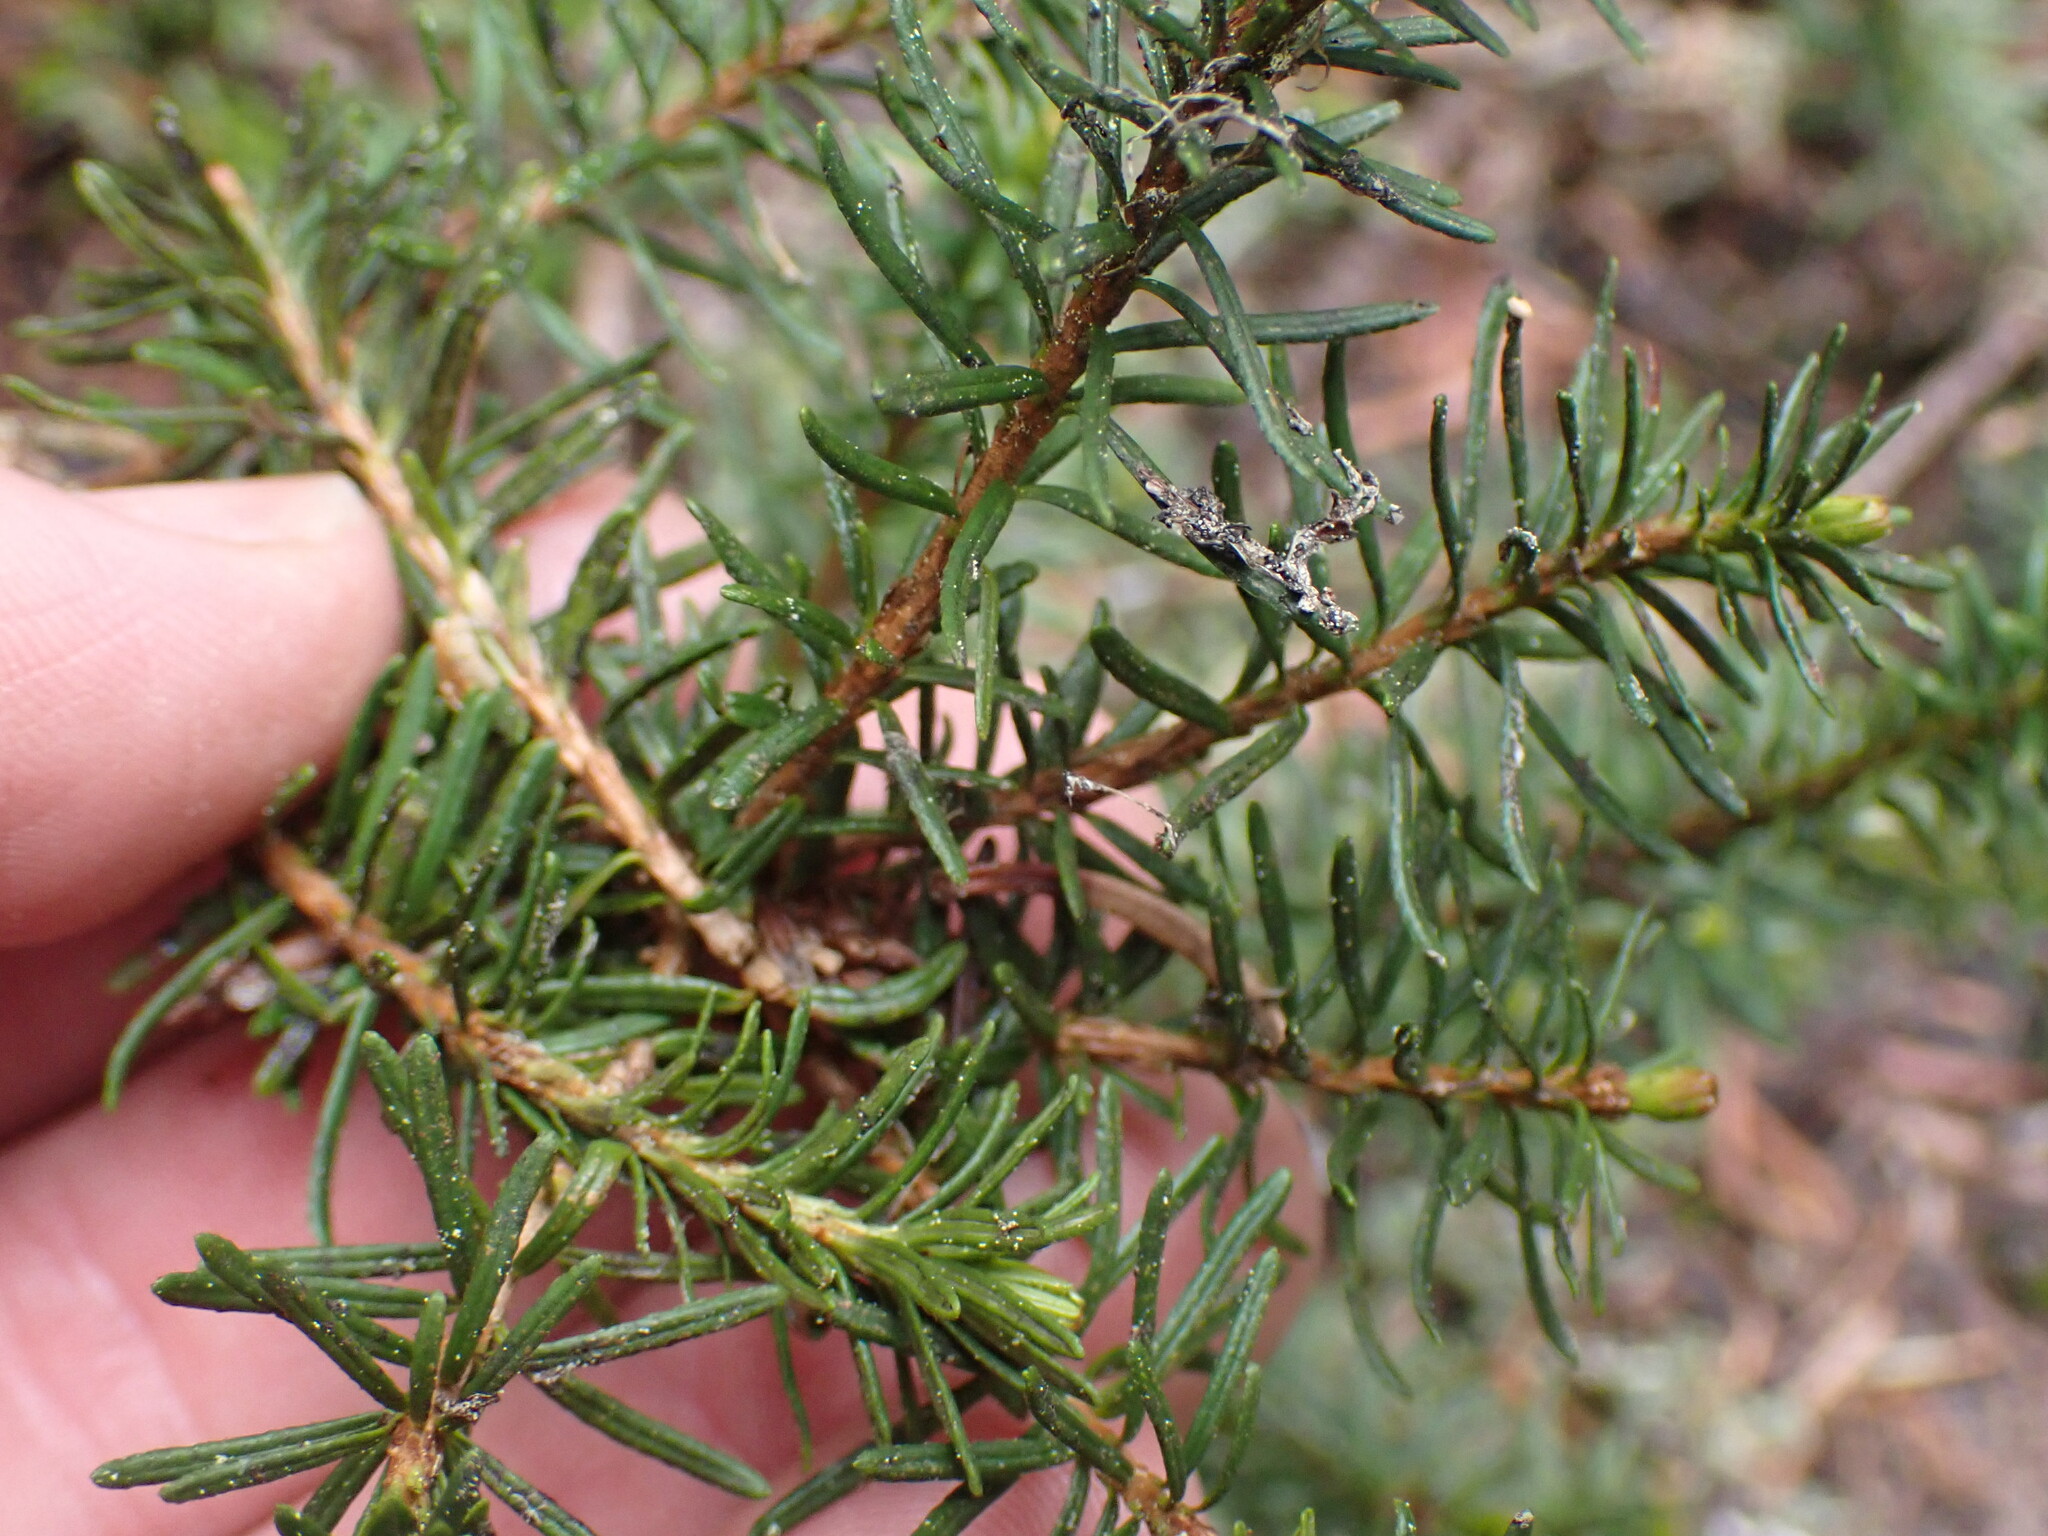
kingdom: Plantae
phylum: Tracheophyta
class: Pinopsida
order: Pinales
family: Pinaceae
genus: Tsuga
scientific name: Tsuga heterophylla
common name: Western hemlock
